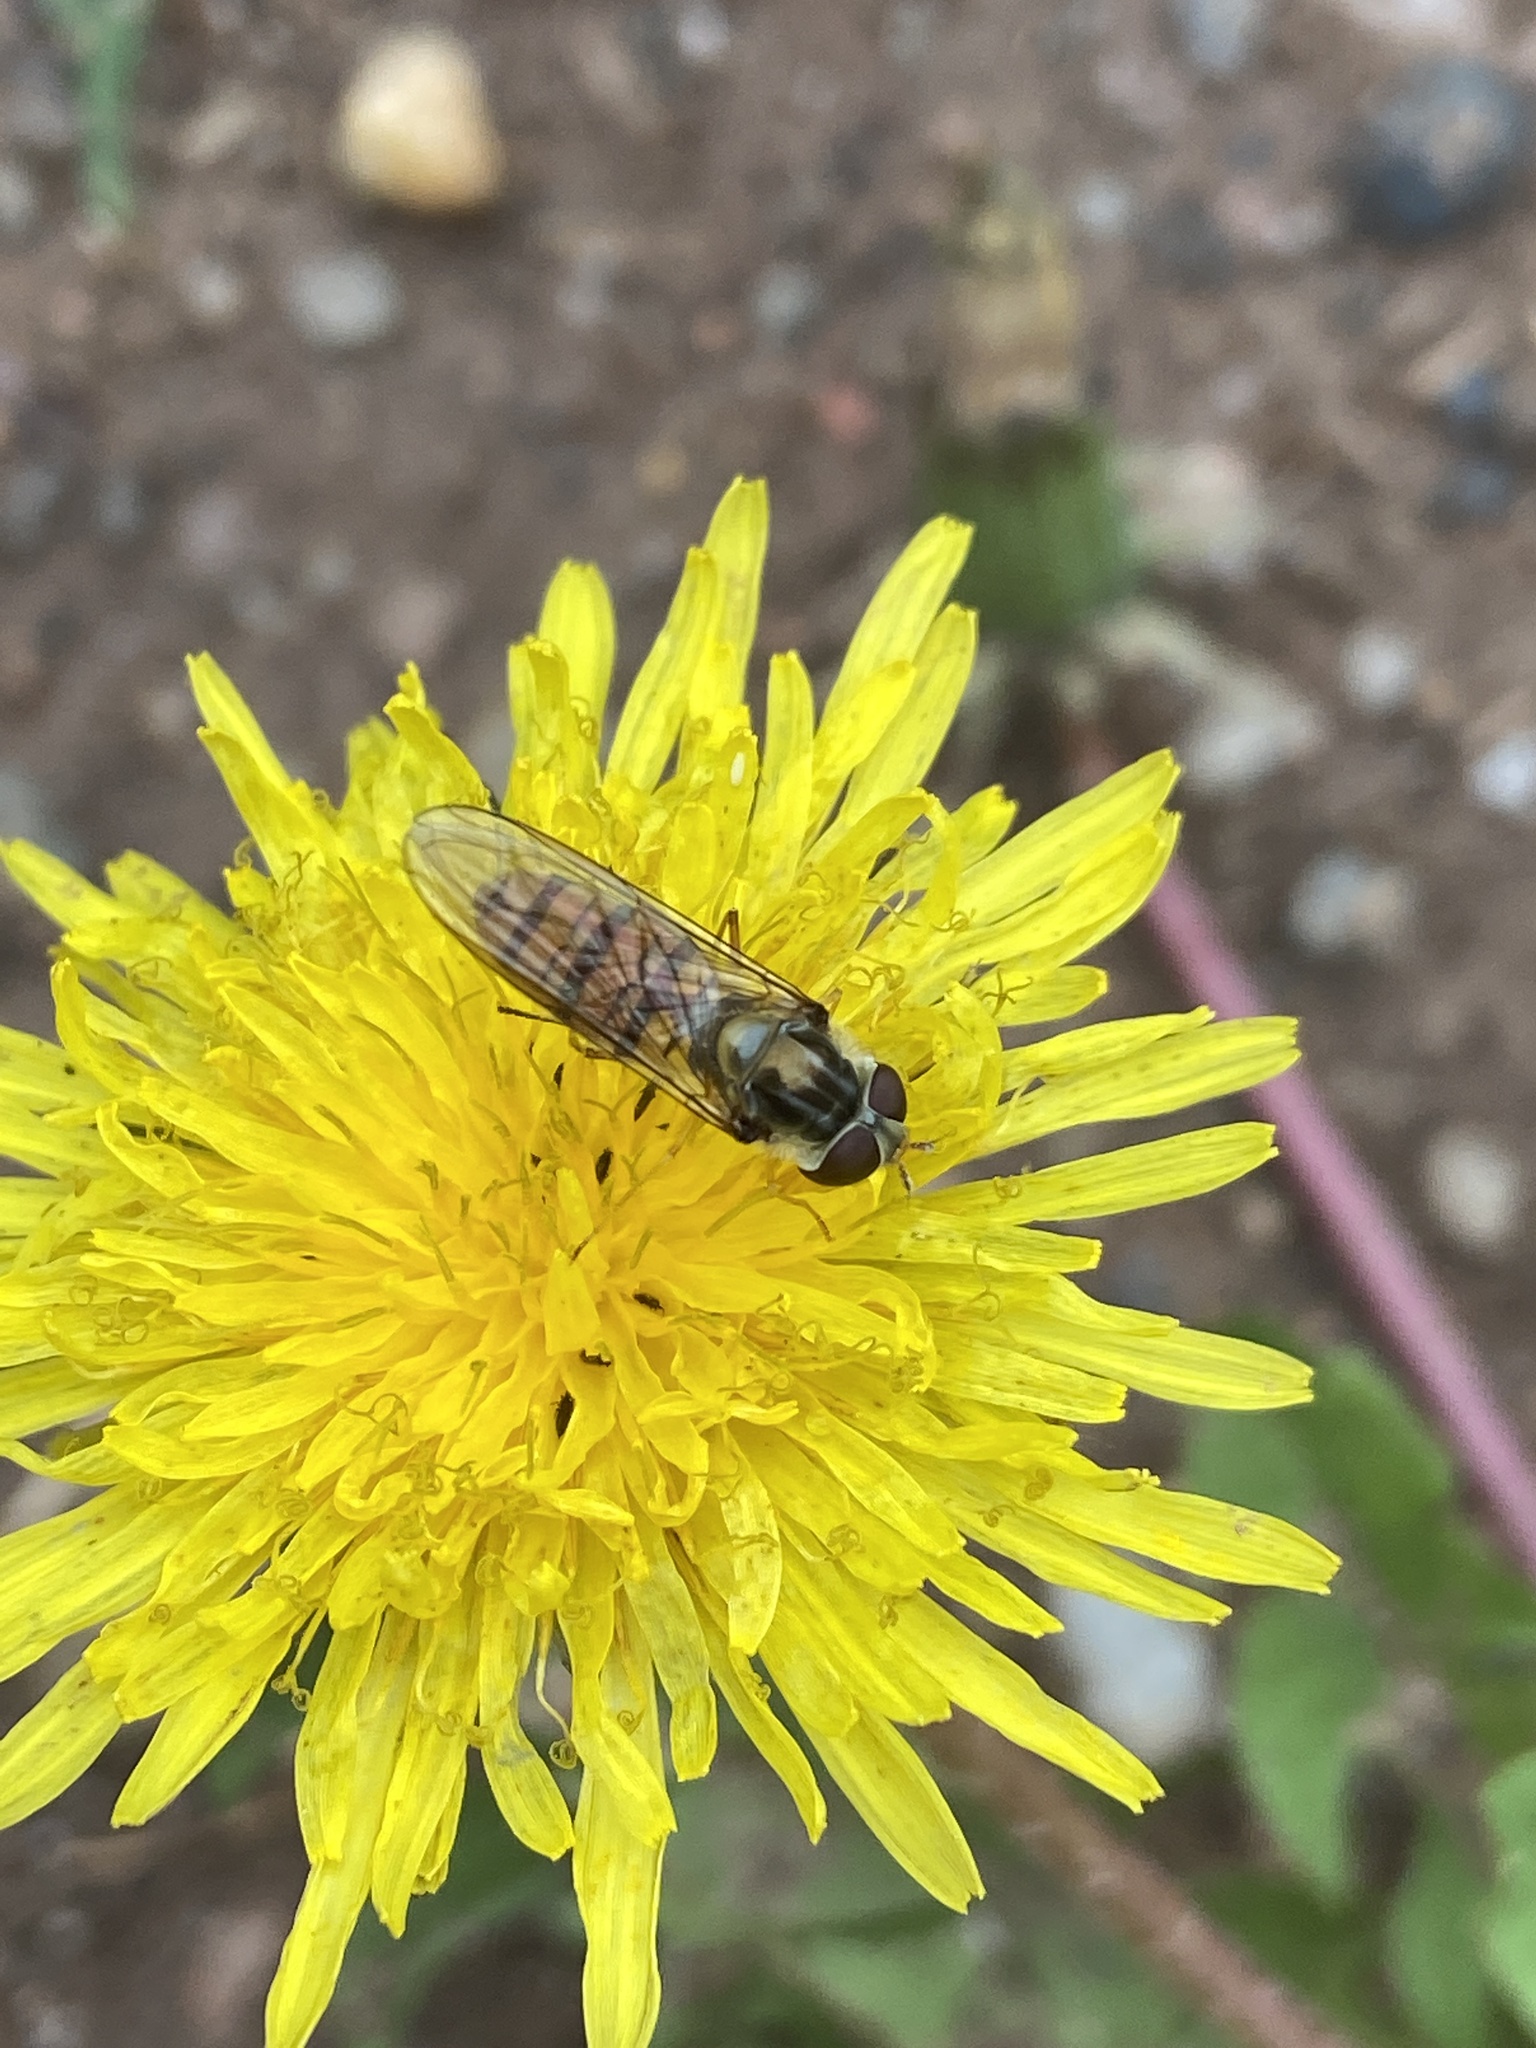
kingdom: Animalia
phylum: Arthropoda
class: Insecta
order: Diptera
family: Syrphidae
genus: Episyrphus
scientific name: Episyrphus balteatus
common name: Marmalade hoverfly
